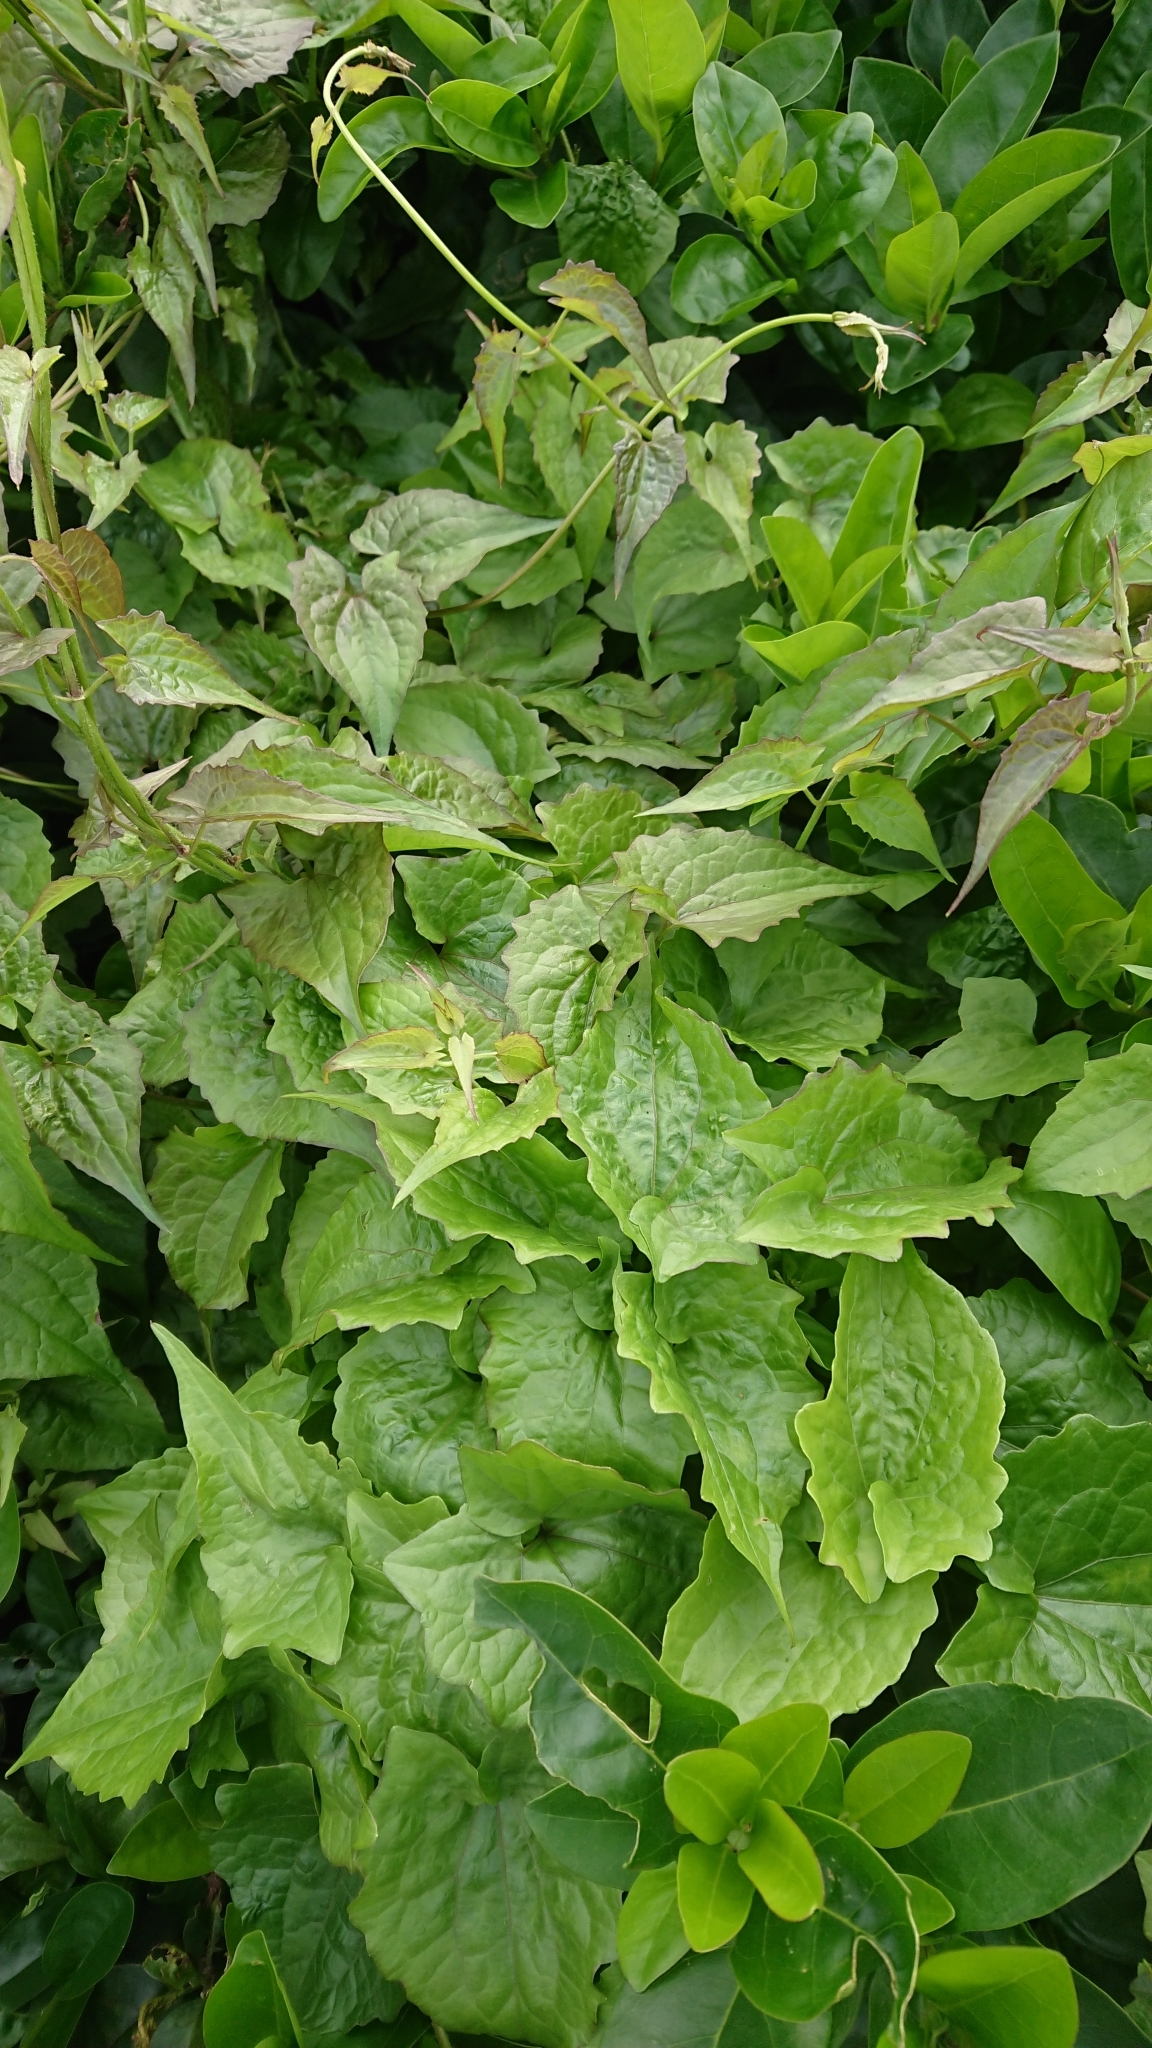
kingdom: Plantae
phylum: Tracheophyta
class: Magnoliopsida
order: Asterales
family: Asteraceae
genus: Mikania
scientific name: Mikania micrantha
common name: Mile-a-minute
